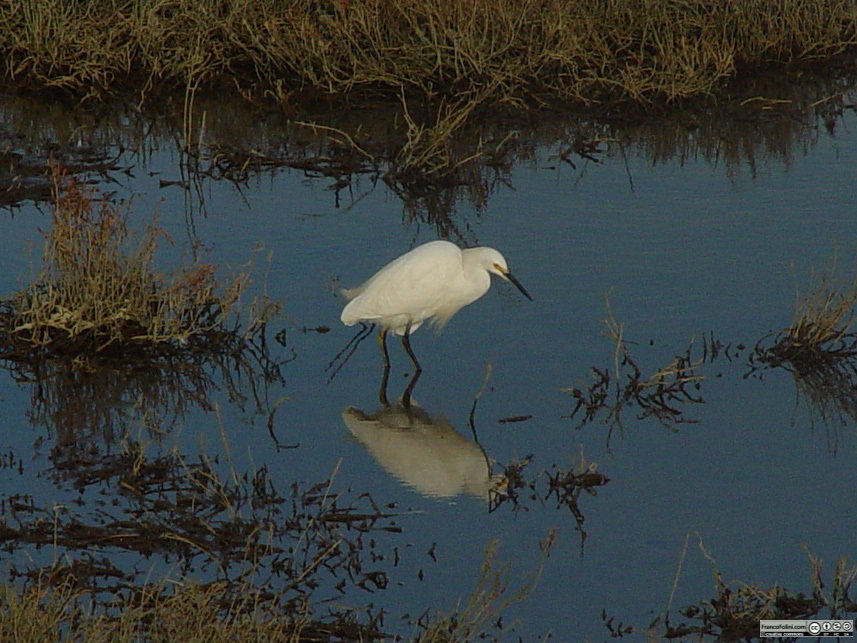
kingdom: Animalia
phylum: Chordata
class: Aves
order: Pelecaniformes
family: Ardeidae
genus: Egretta
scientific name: Egretta thula
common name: Snowy egret
